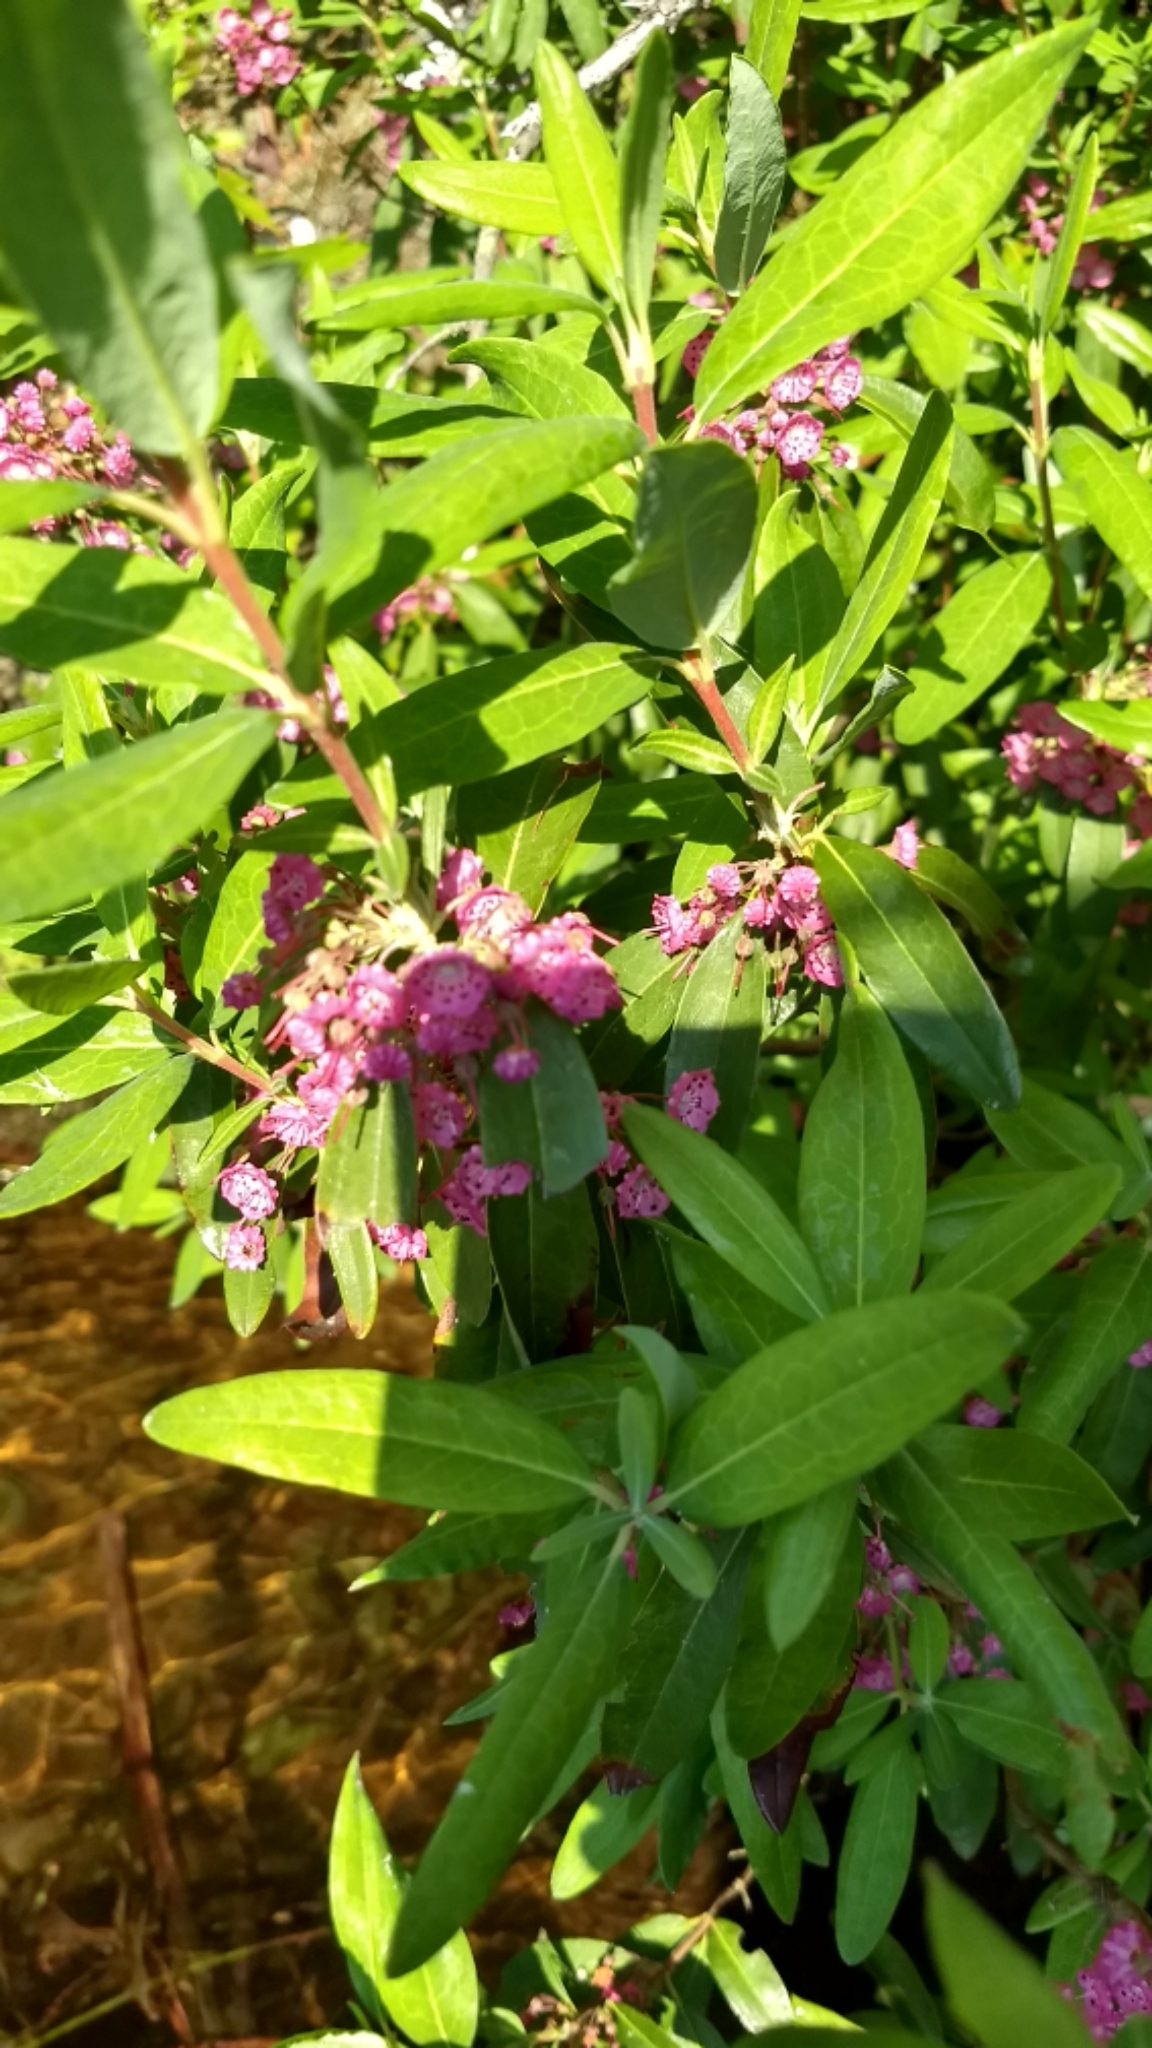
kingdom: Plantae
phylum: Tracheophyta
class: Magnoliopsida
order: Ericales
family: Ericaceae
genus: Kalmia
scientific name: Kalmia angustifolia
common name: Sheep-laurel
